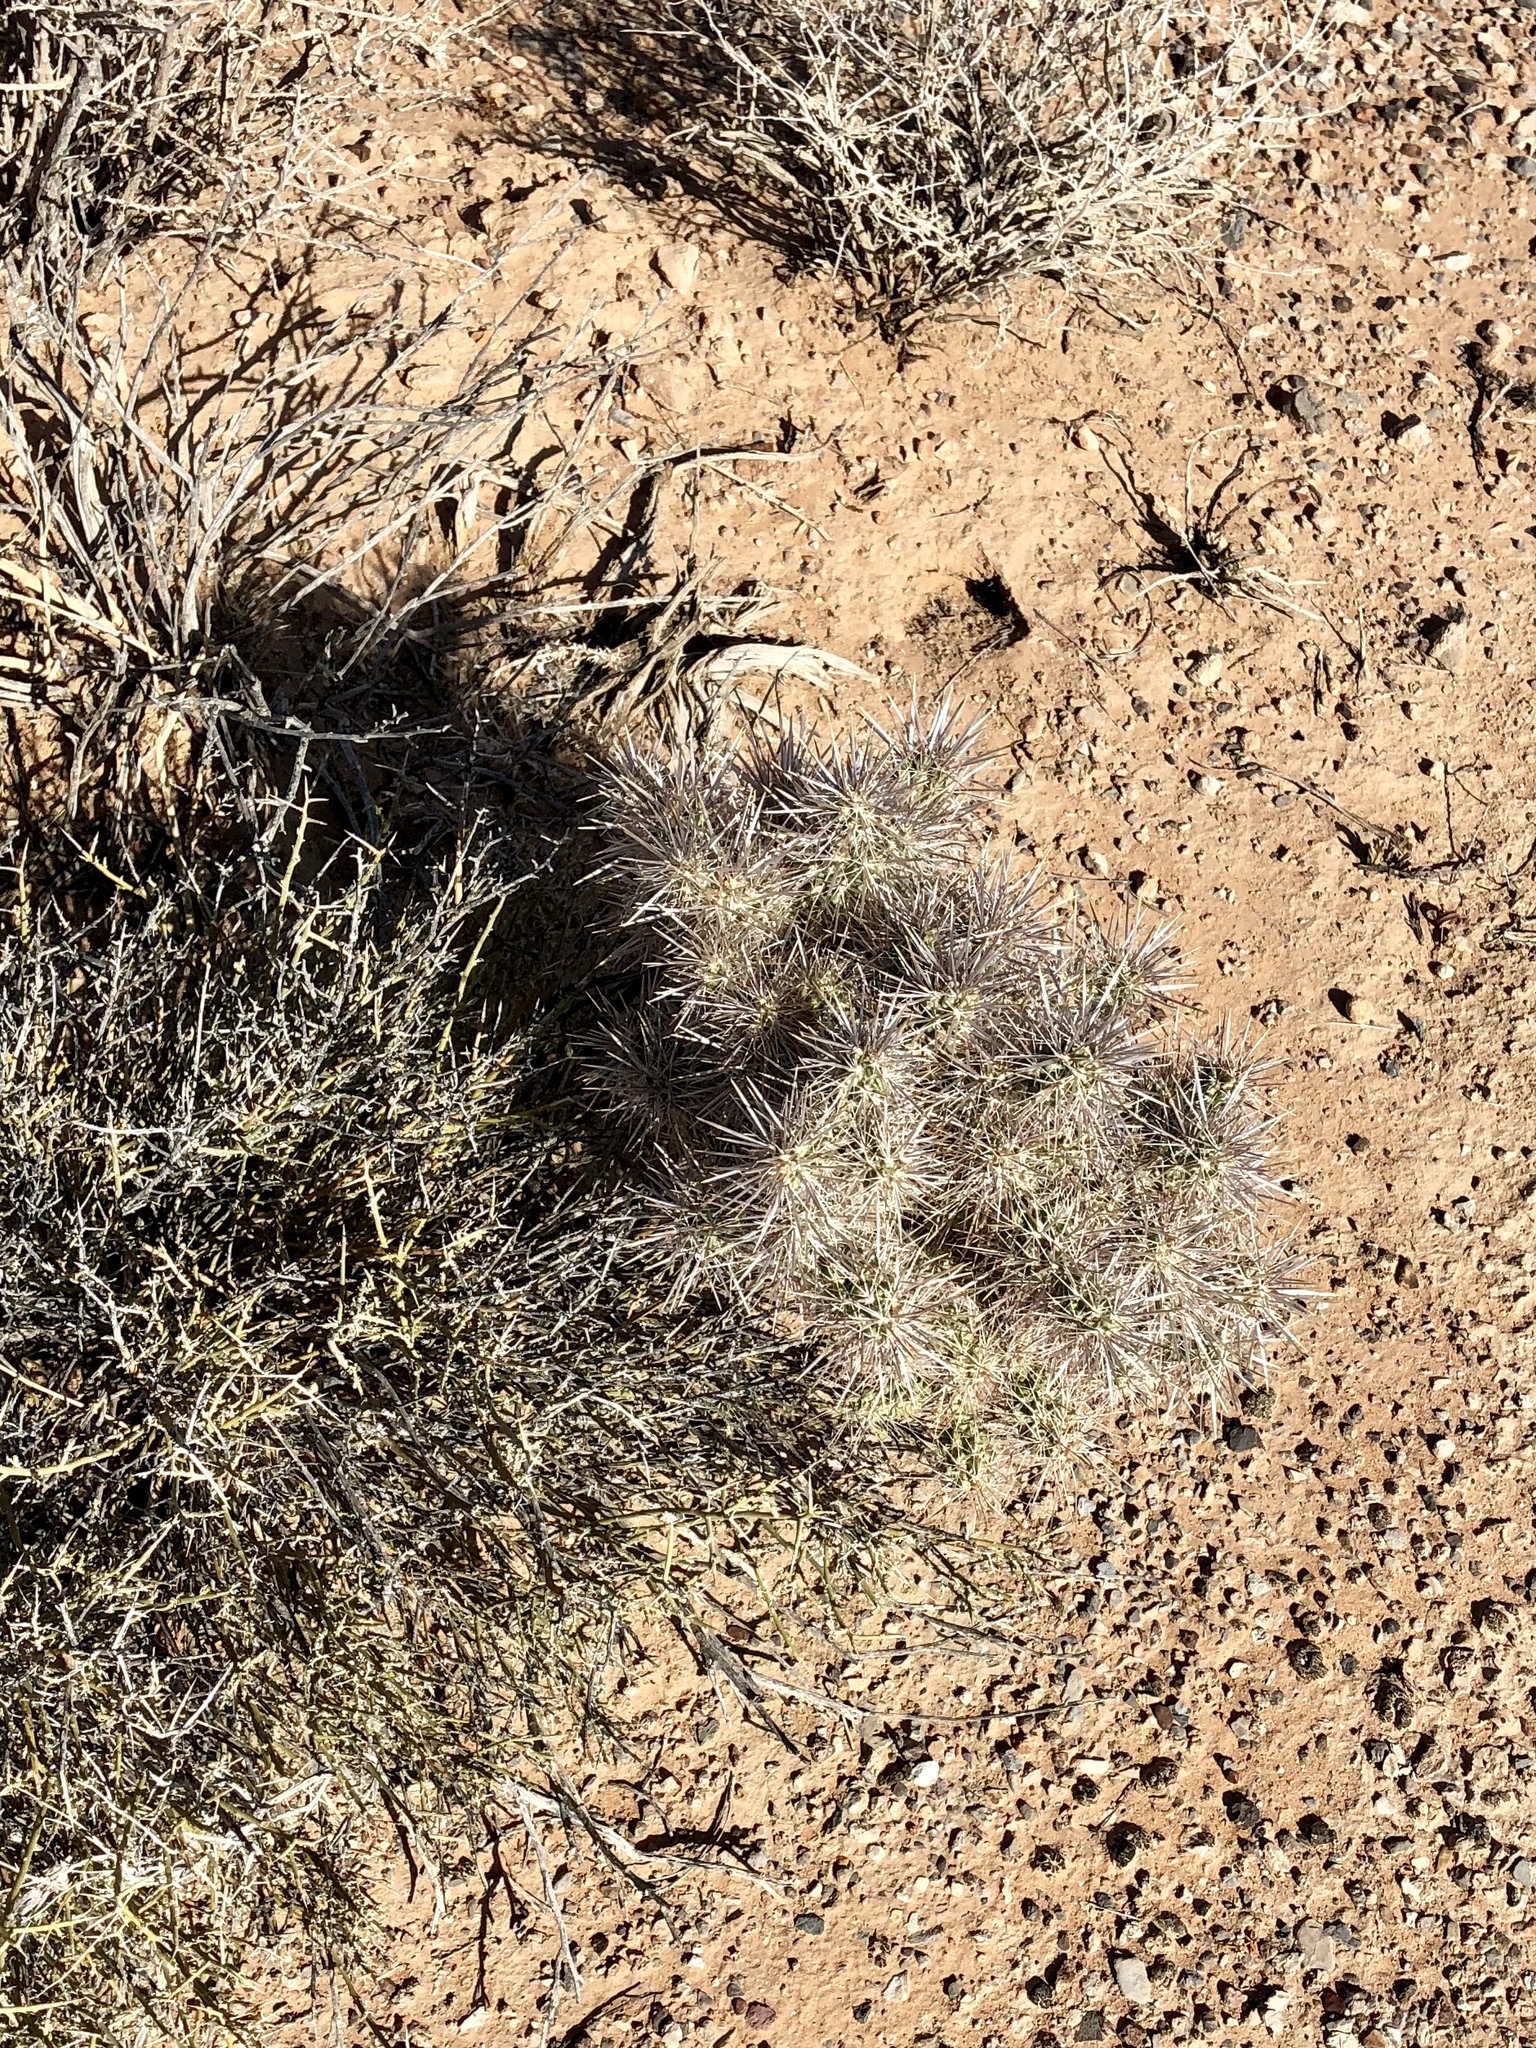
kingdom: Plantae
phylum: Tracheophyta
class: Magnoliopsida
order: Caryophyllales
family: Cactaceae
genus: Cylindropuntia
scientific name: Cylindropuntia echinocarpa
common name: Ground cholla
